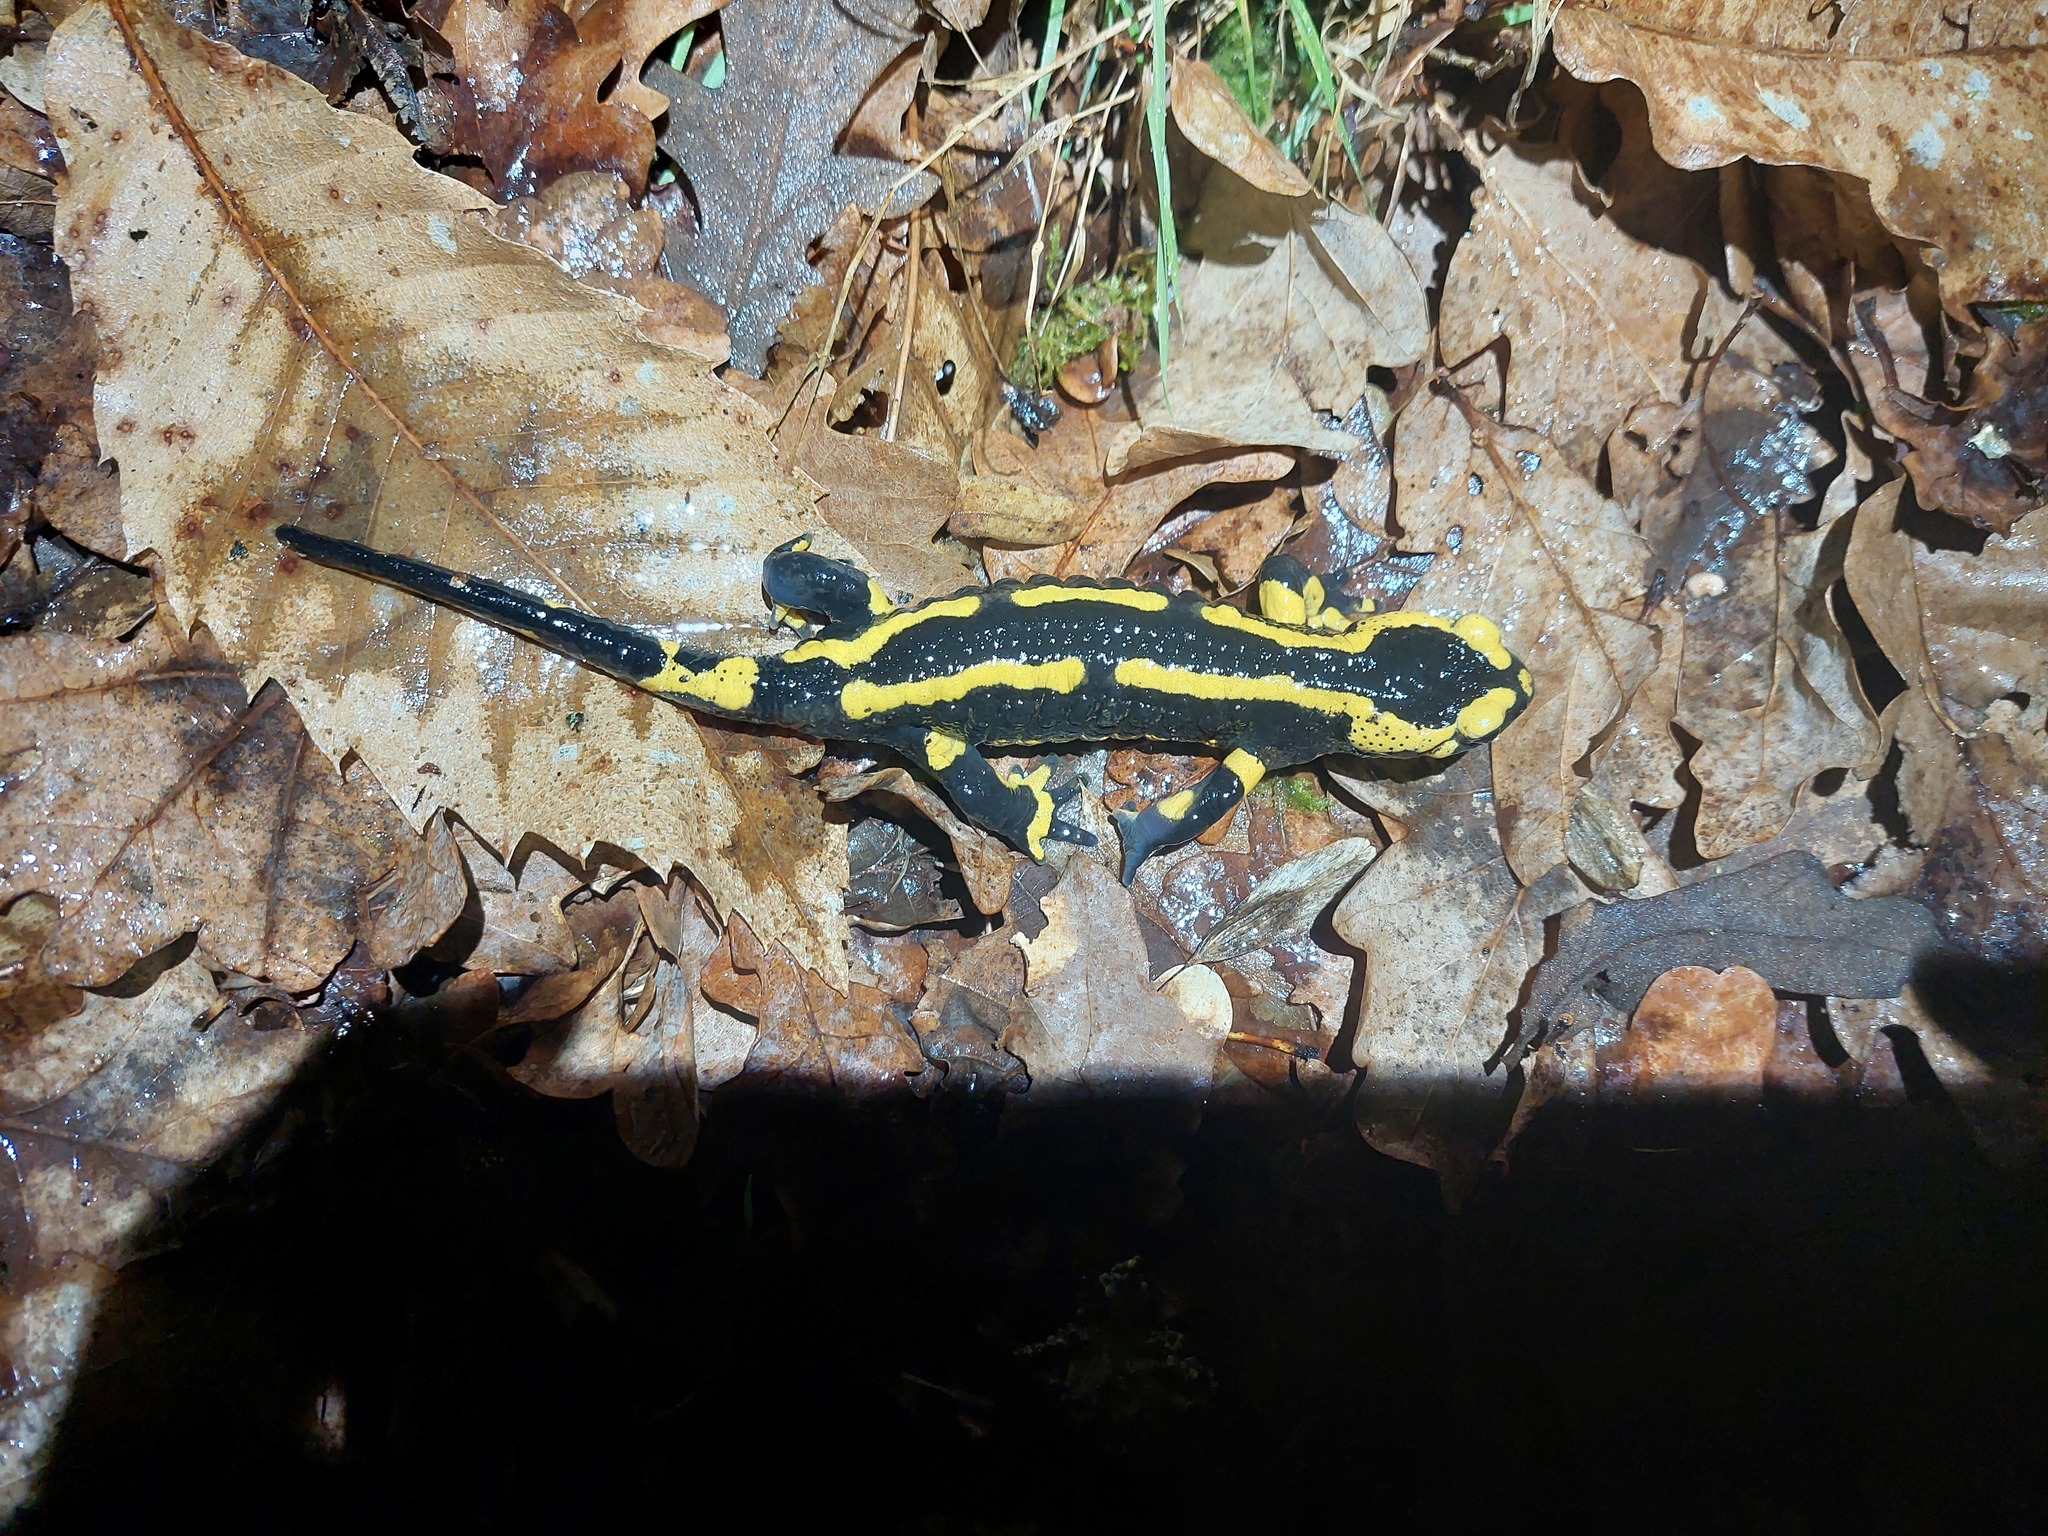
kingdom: Animalia
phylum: Chordata
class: Amphibia
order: Caudata
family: Salamandridae
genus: Salamandra
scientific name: Salamandra salamandra
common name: Fire salamander
